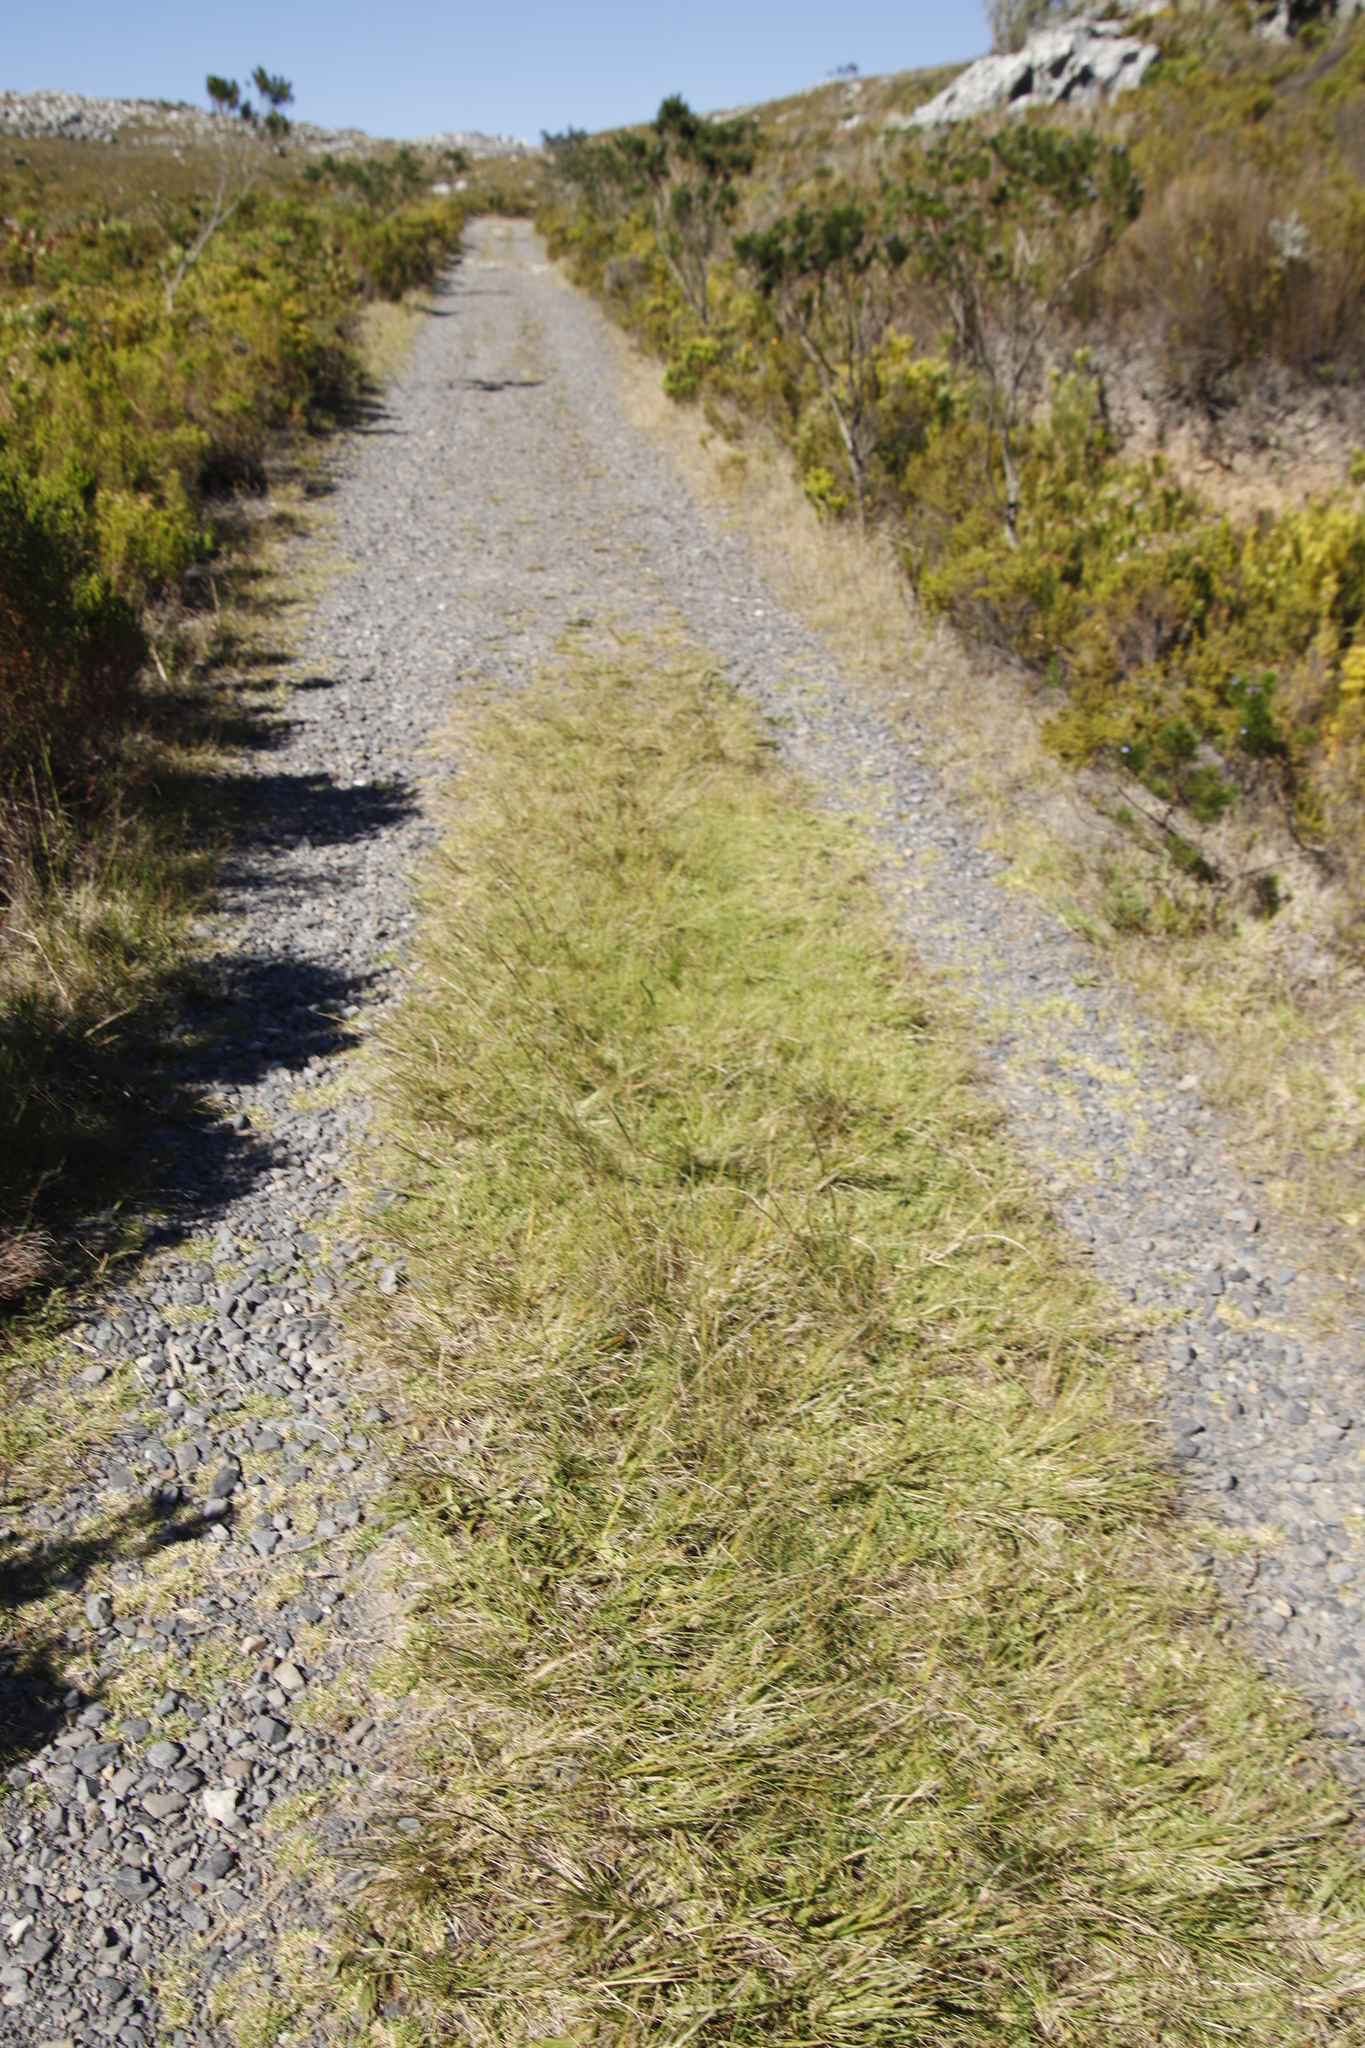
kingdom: Plantae
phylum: Tracheophyta
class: Liliopsida
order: Poales
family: Poaceae
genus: Eragrostis
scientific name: Eragrostis curvula
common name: African love-grass
